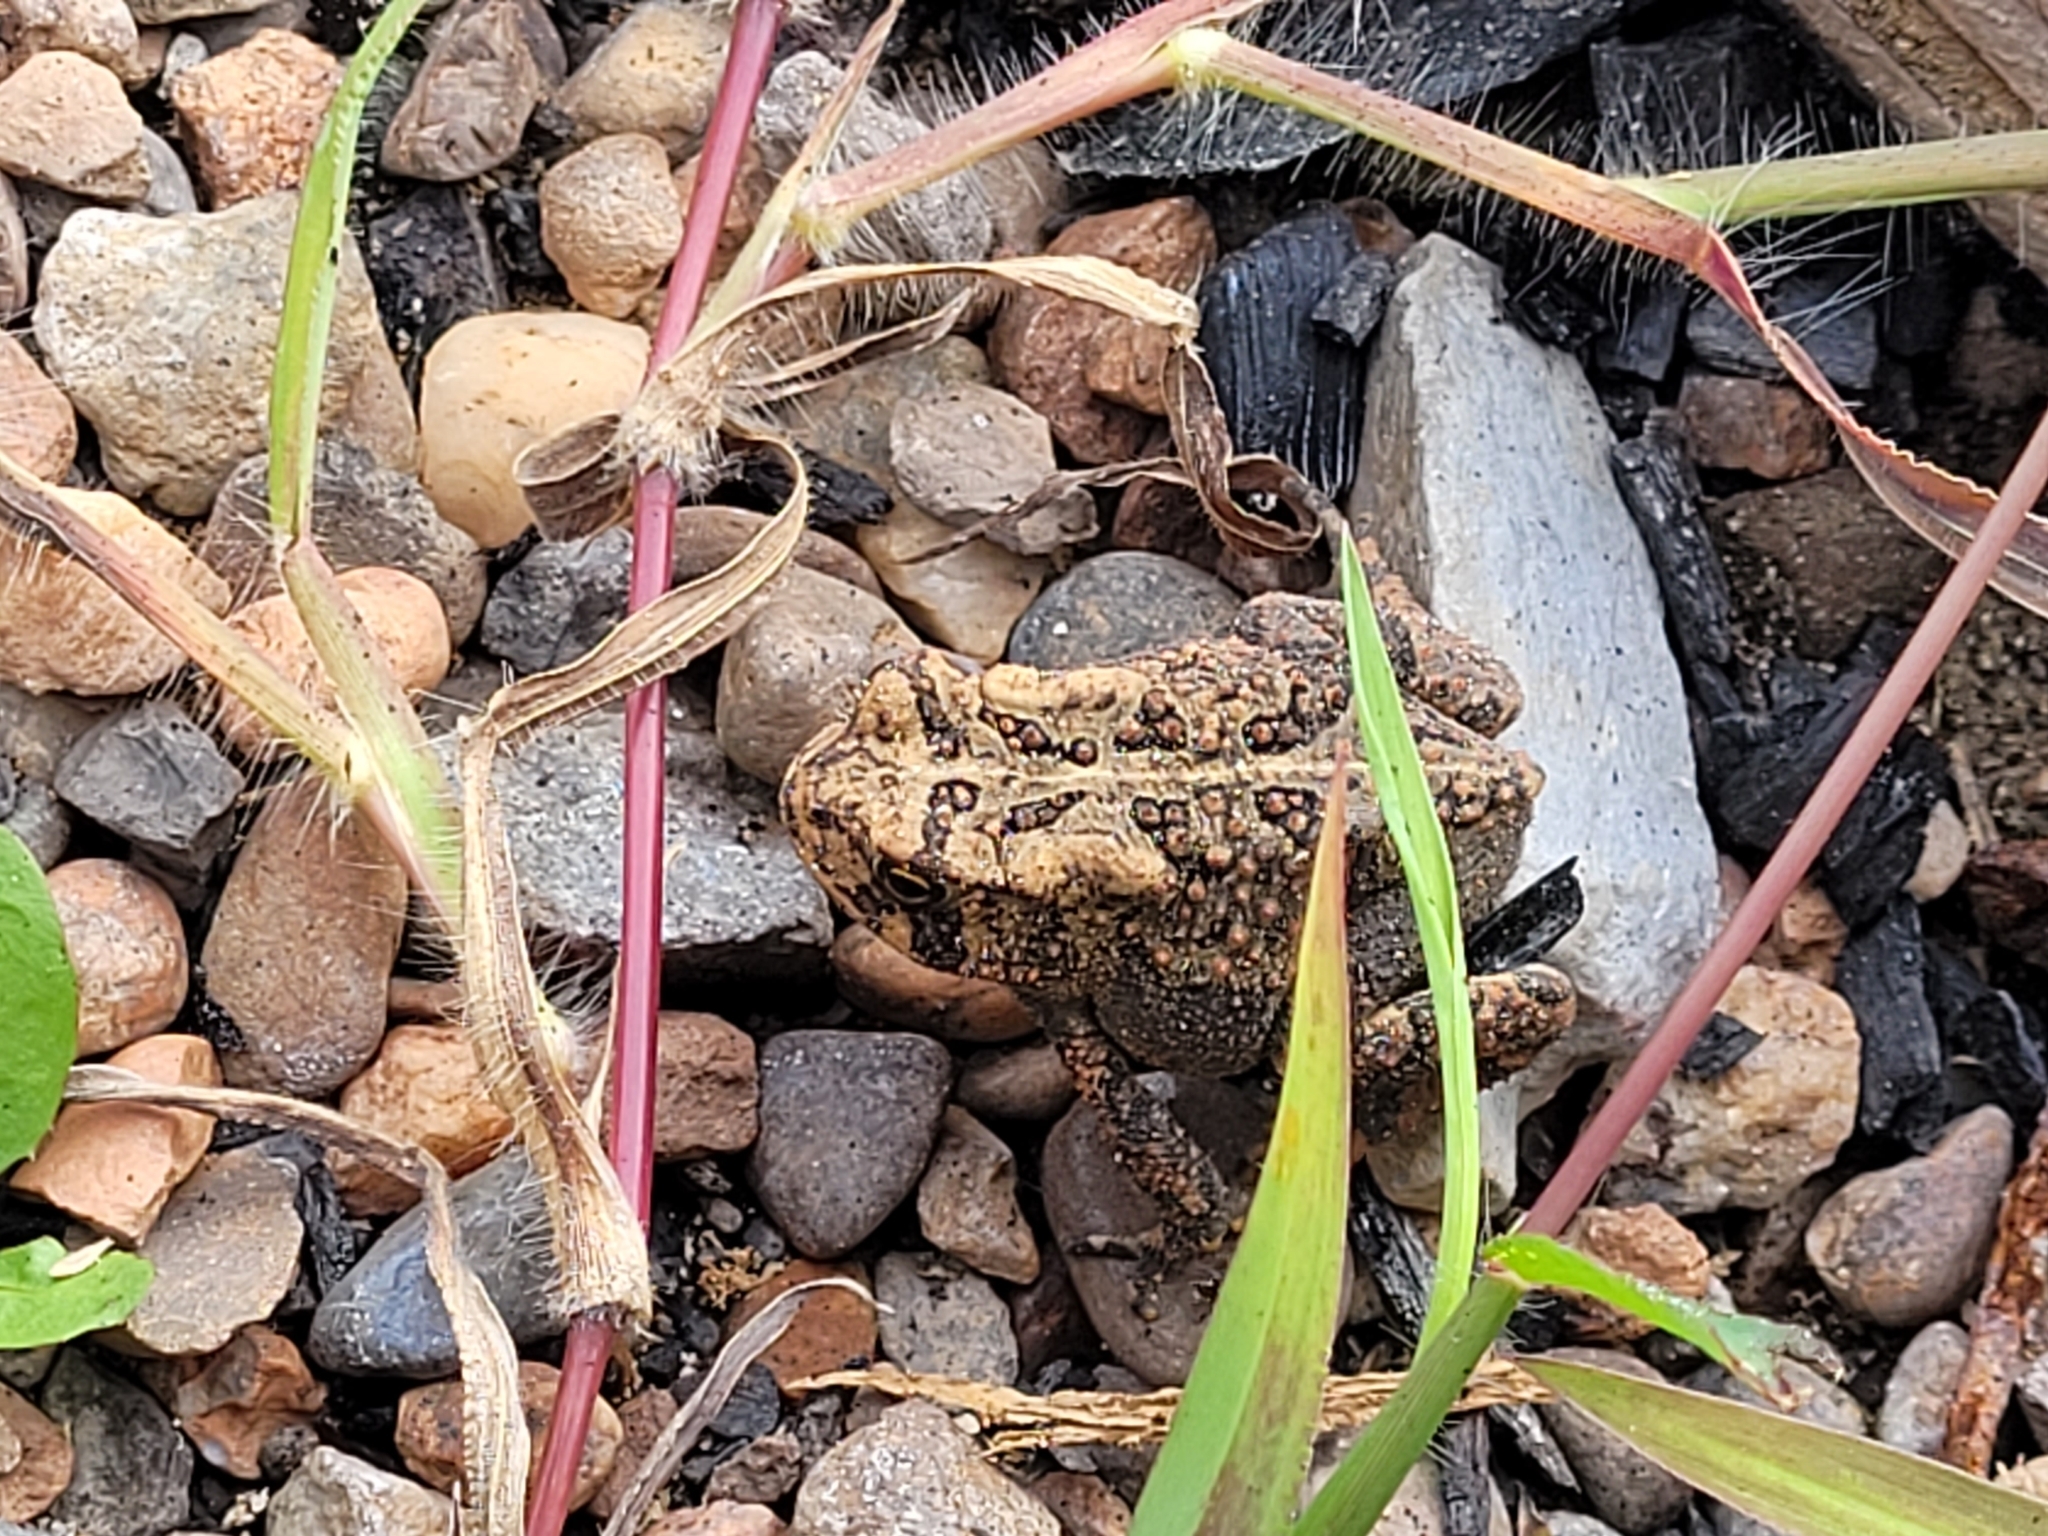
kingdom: Animalia
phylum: Chordata
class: Amphibia
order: Anura
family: Bufonidae
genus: Anaxyrus
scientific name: Anaxyrus americanus
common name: American toad
